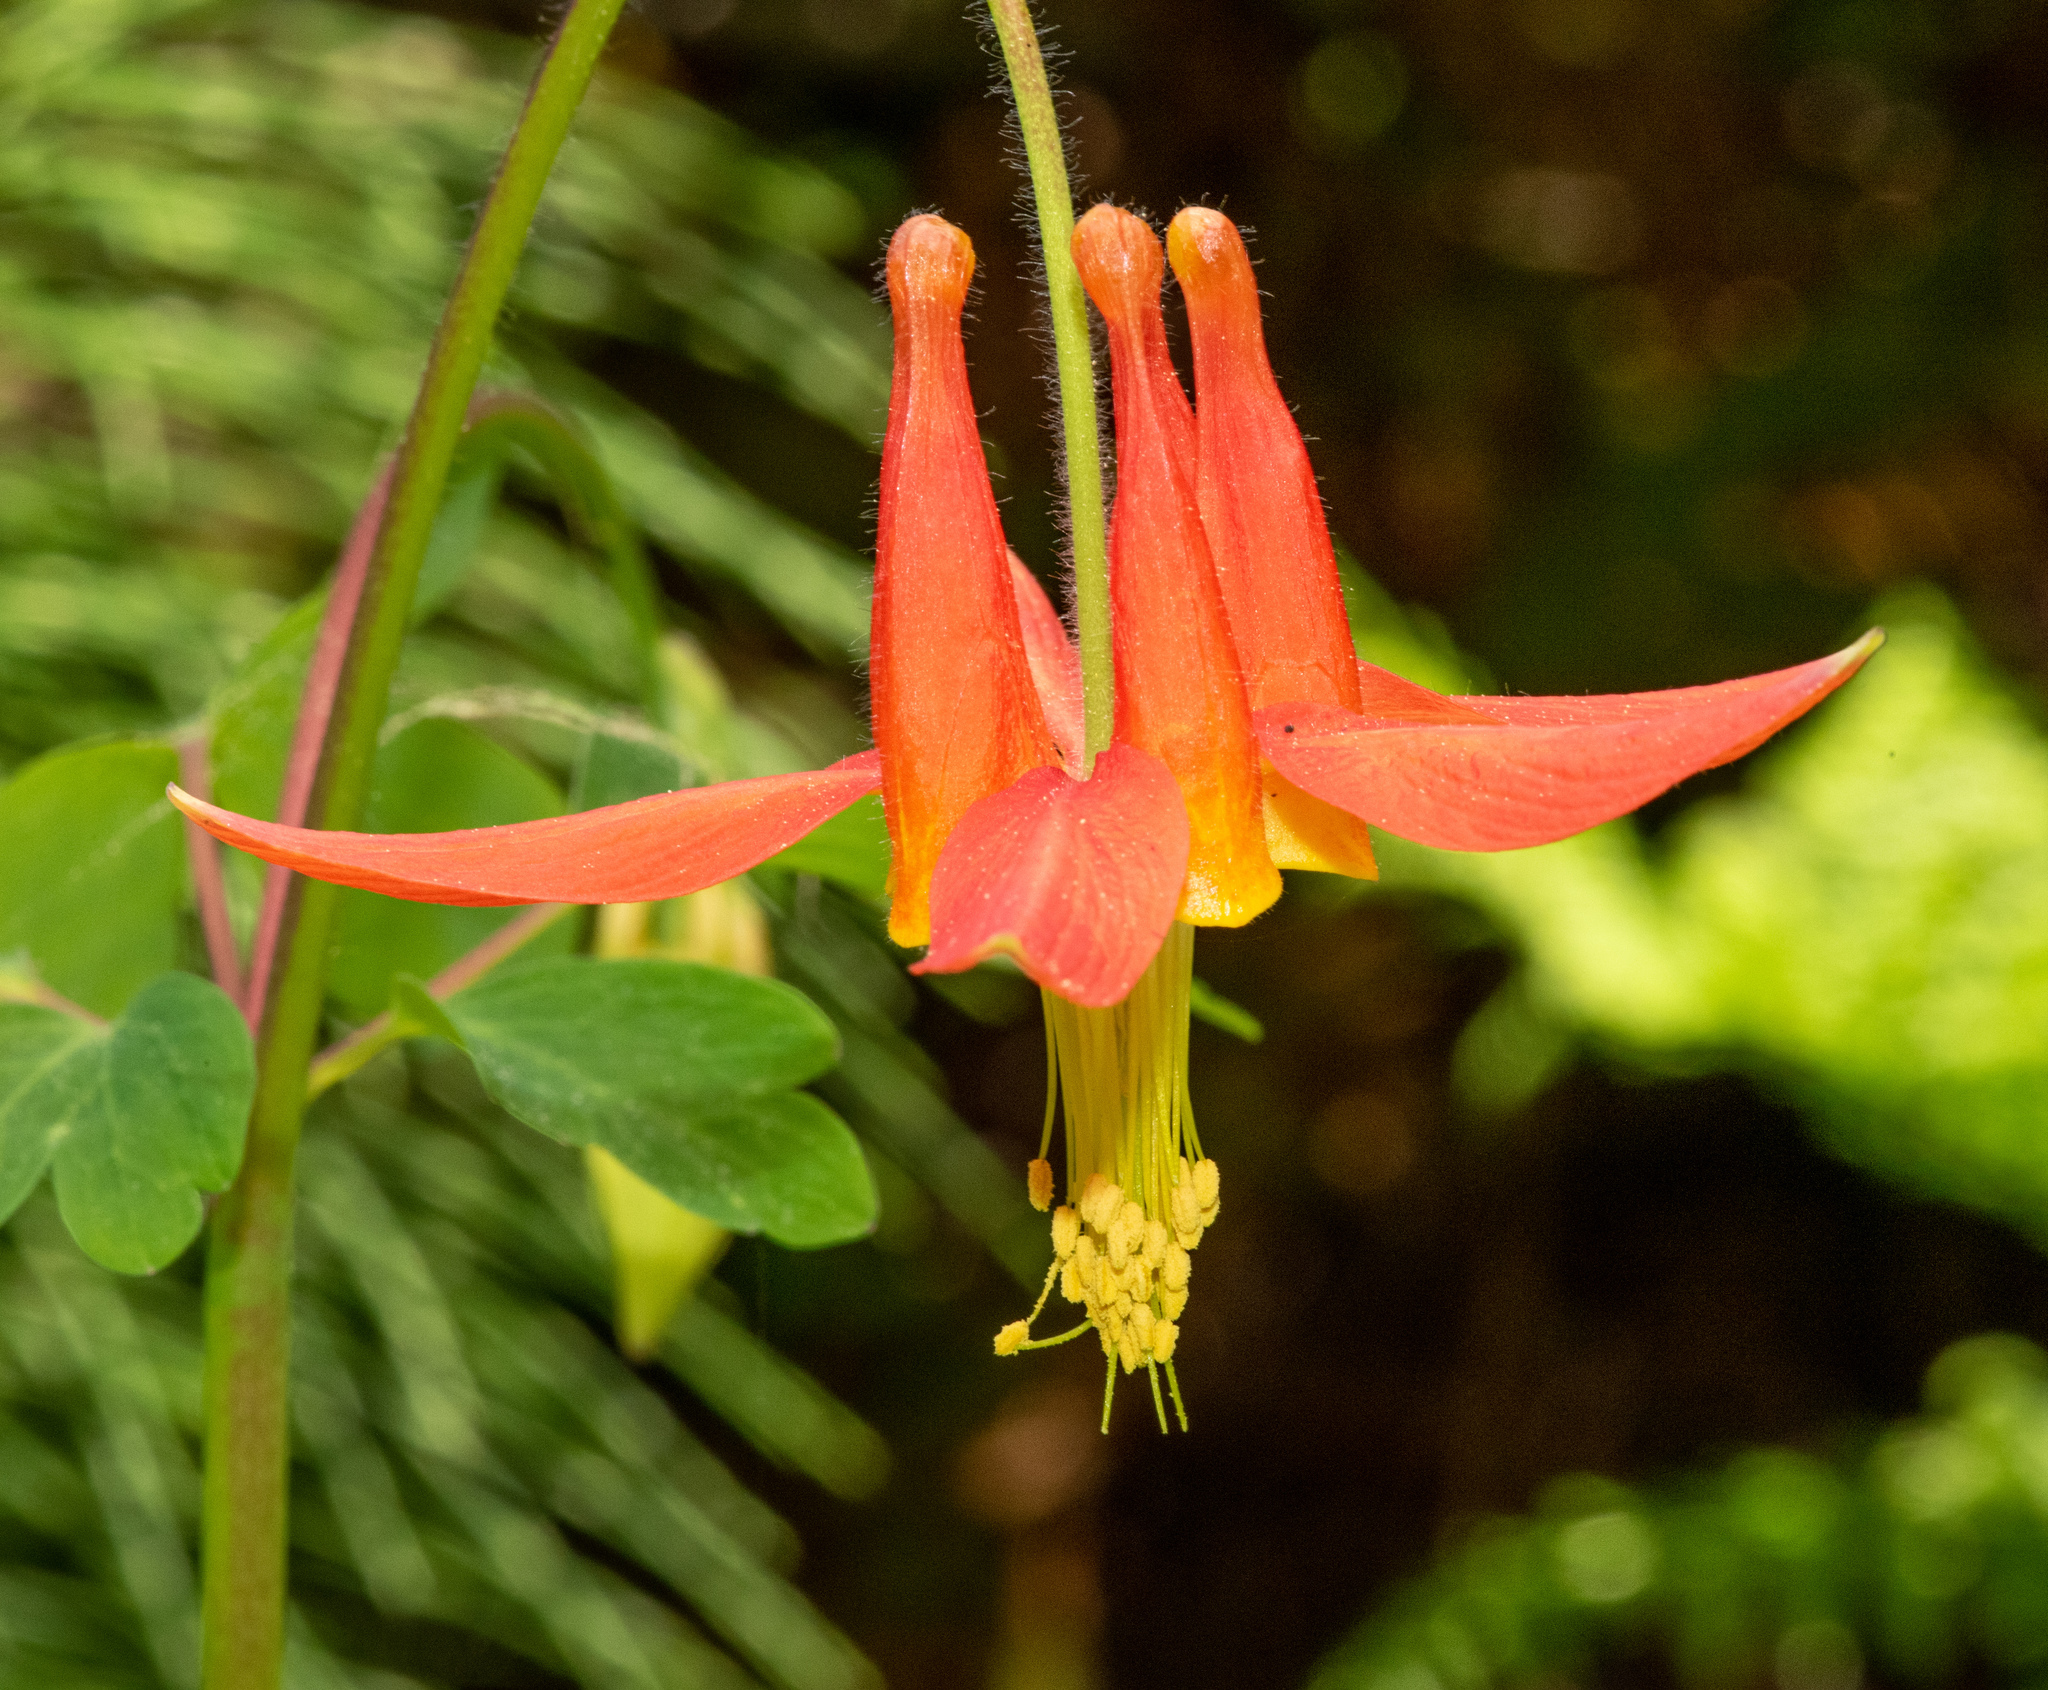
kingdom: Plantae
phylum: Tracheophyta
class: Magnoliopsida
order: Ranunculales
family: Ranunculaceae
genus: Aquilegia
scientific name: Aquilegia formosa
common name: Sitka columbine
